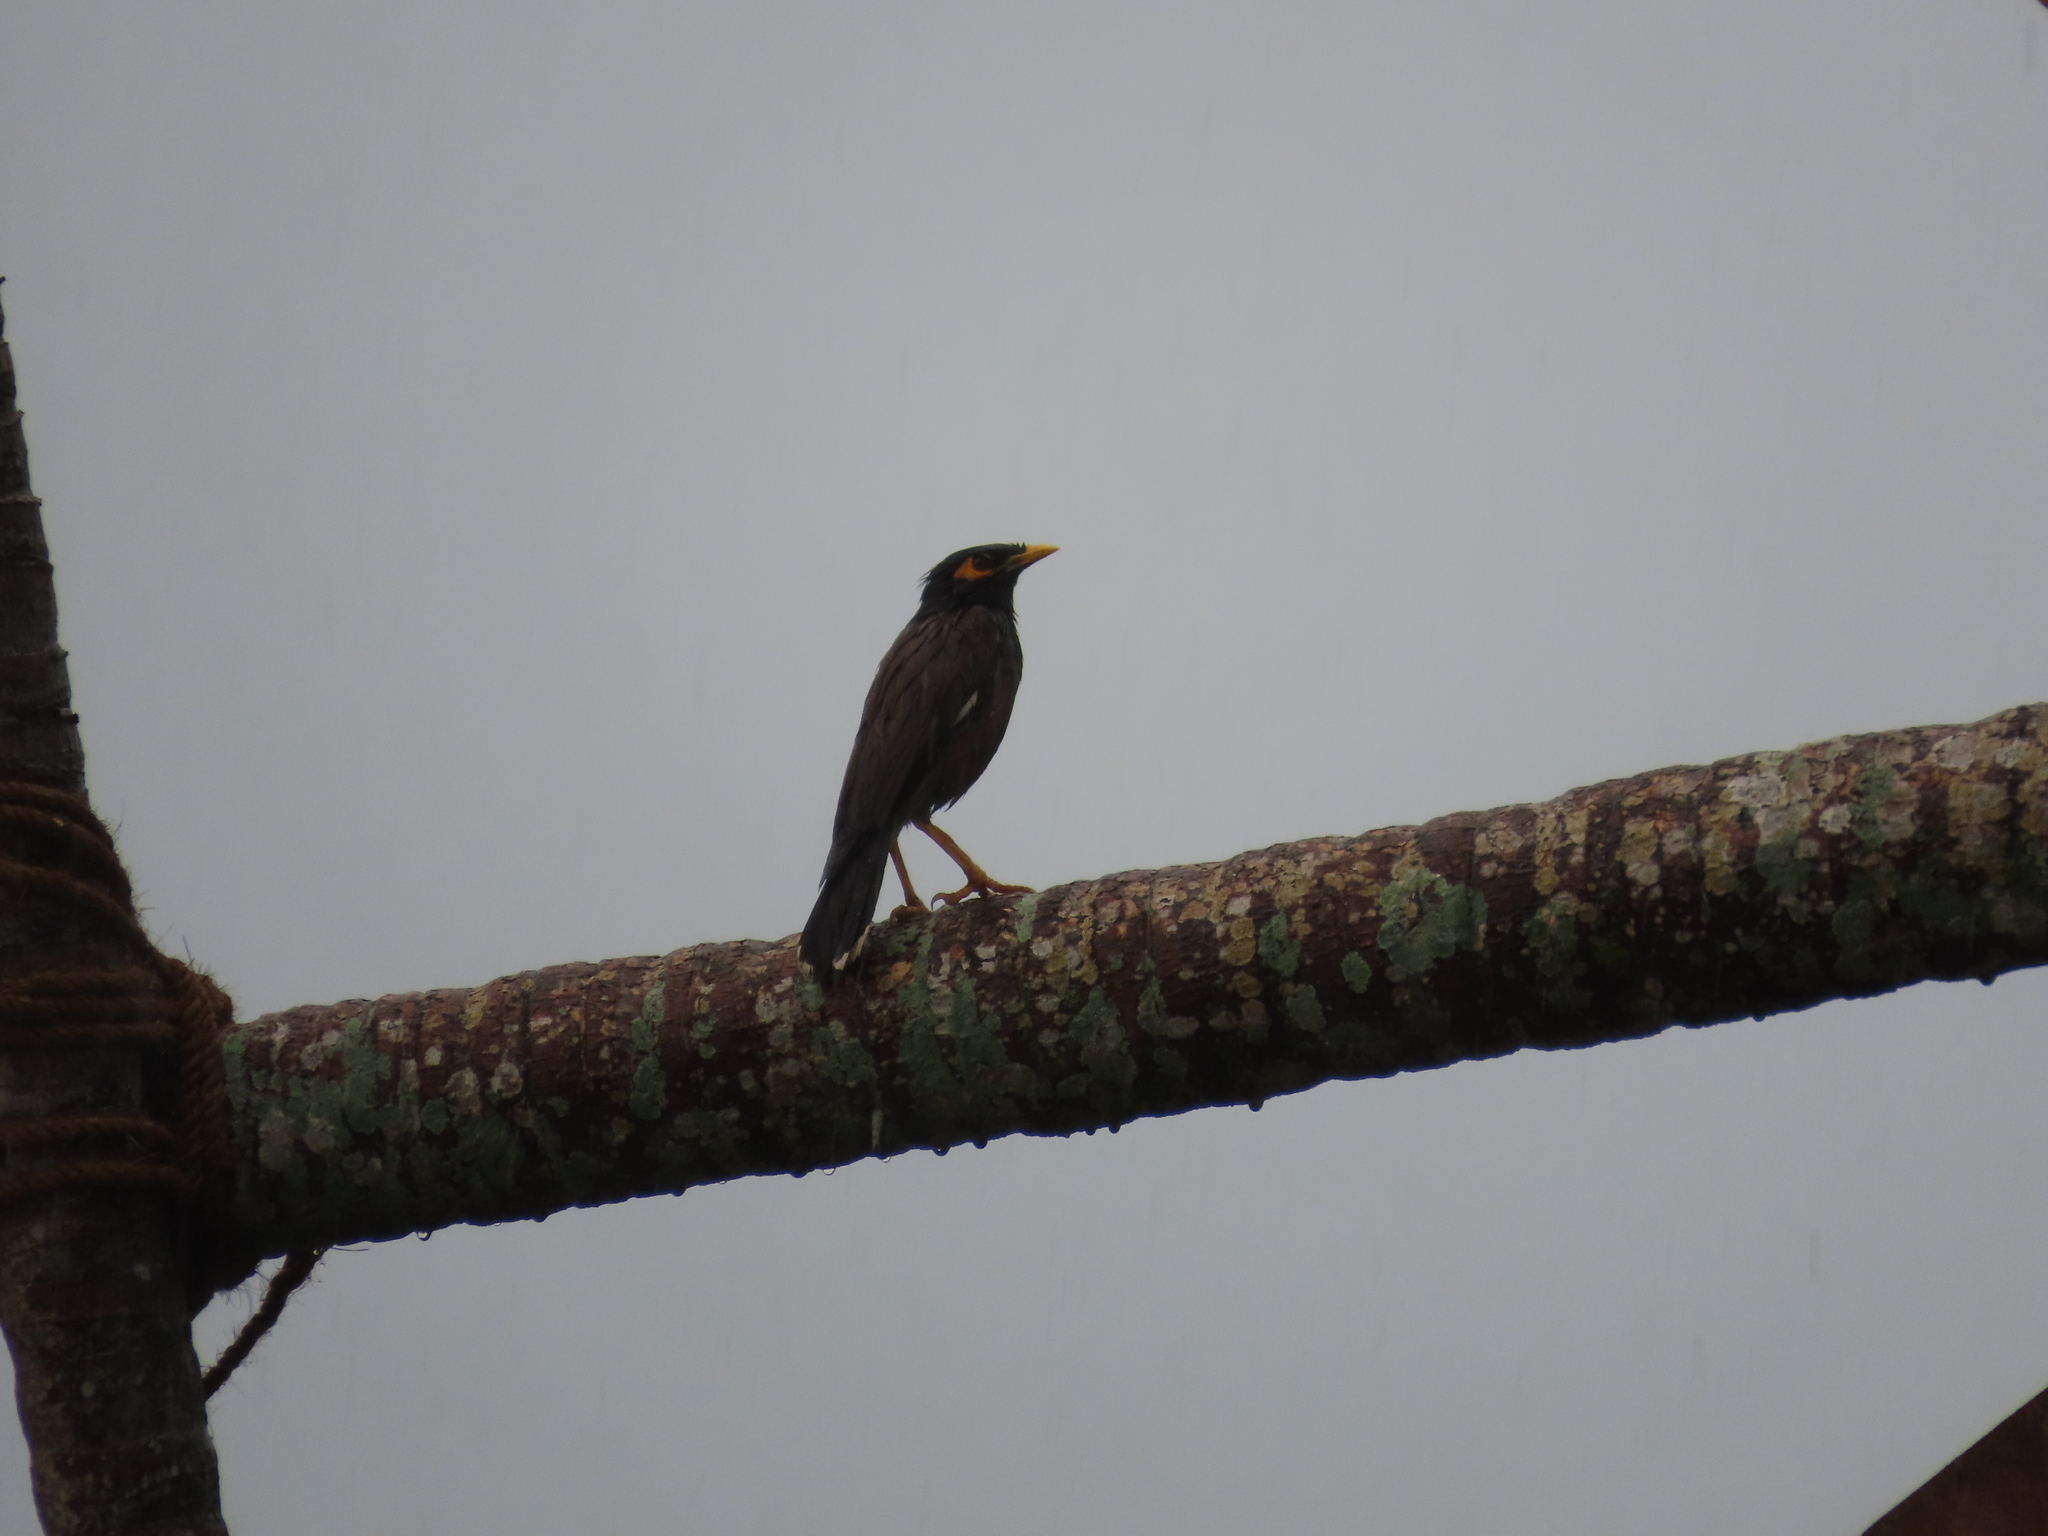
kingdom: Animalia
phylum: Chordata
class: Aves
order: Passeriformes
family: Sturnidae
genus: Acridotheres
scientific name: Acridotheres tristis
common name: Common myna
